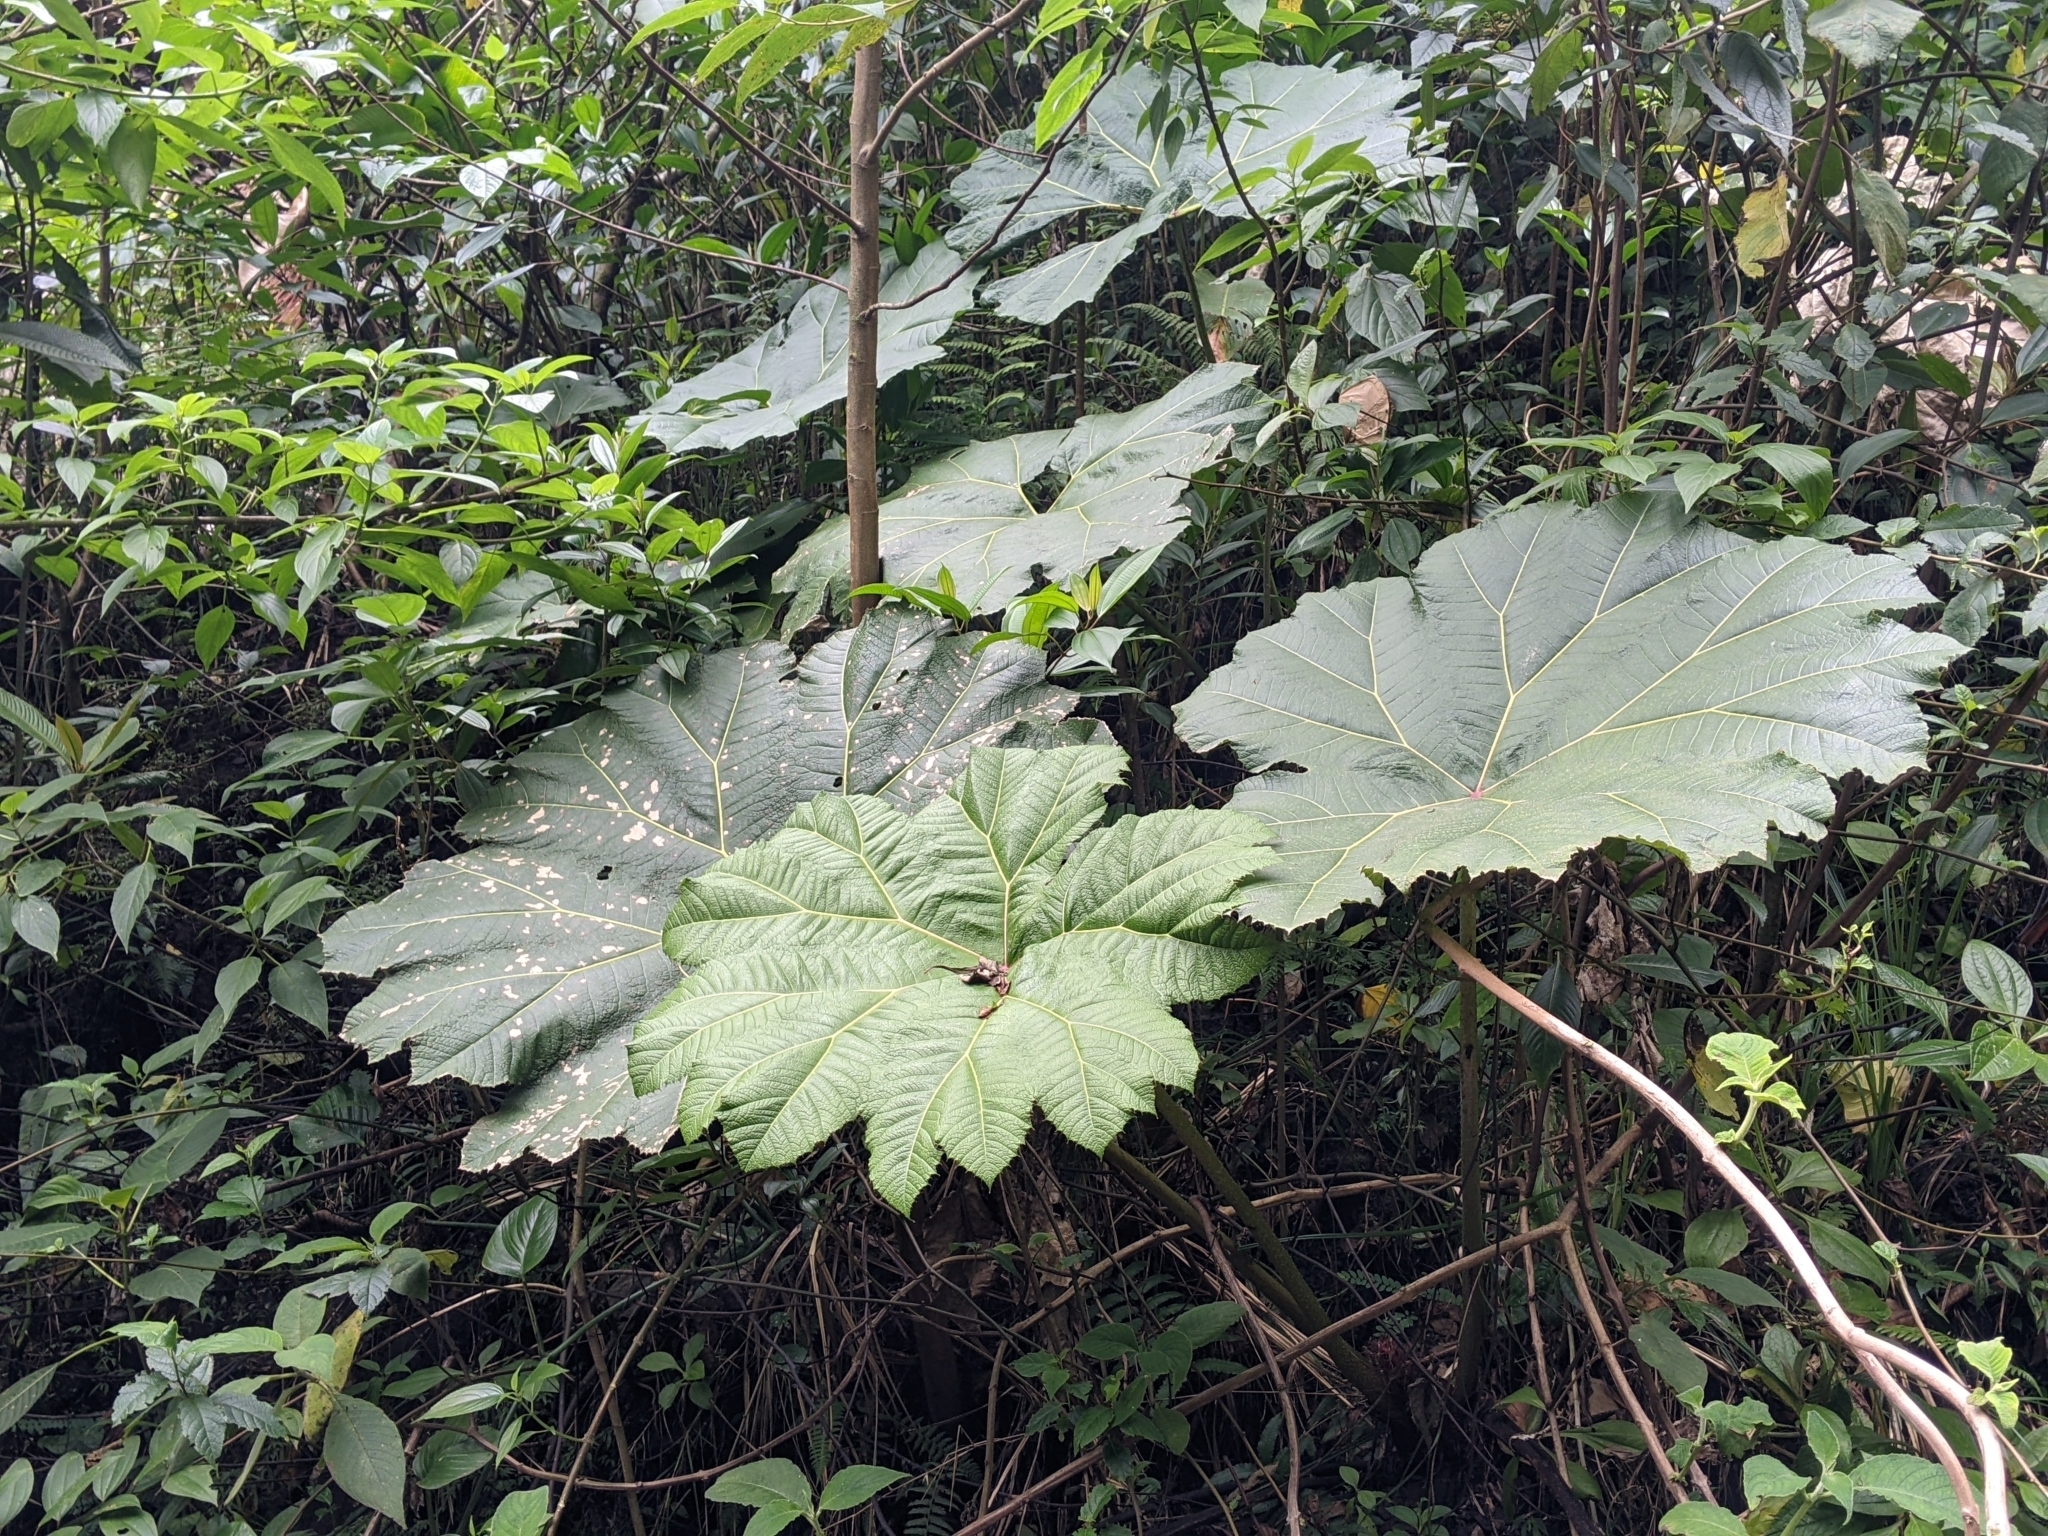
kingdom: Plantae
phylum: Tracheophyta
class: Magnoliopsida
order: Gunnerales
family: Gunneraceae
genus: Gunnera
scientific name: Gunnera insignis
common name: Poorman's umbrella
